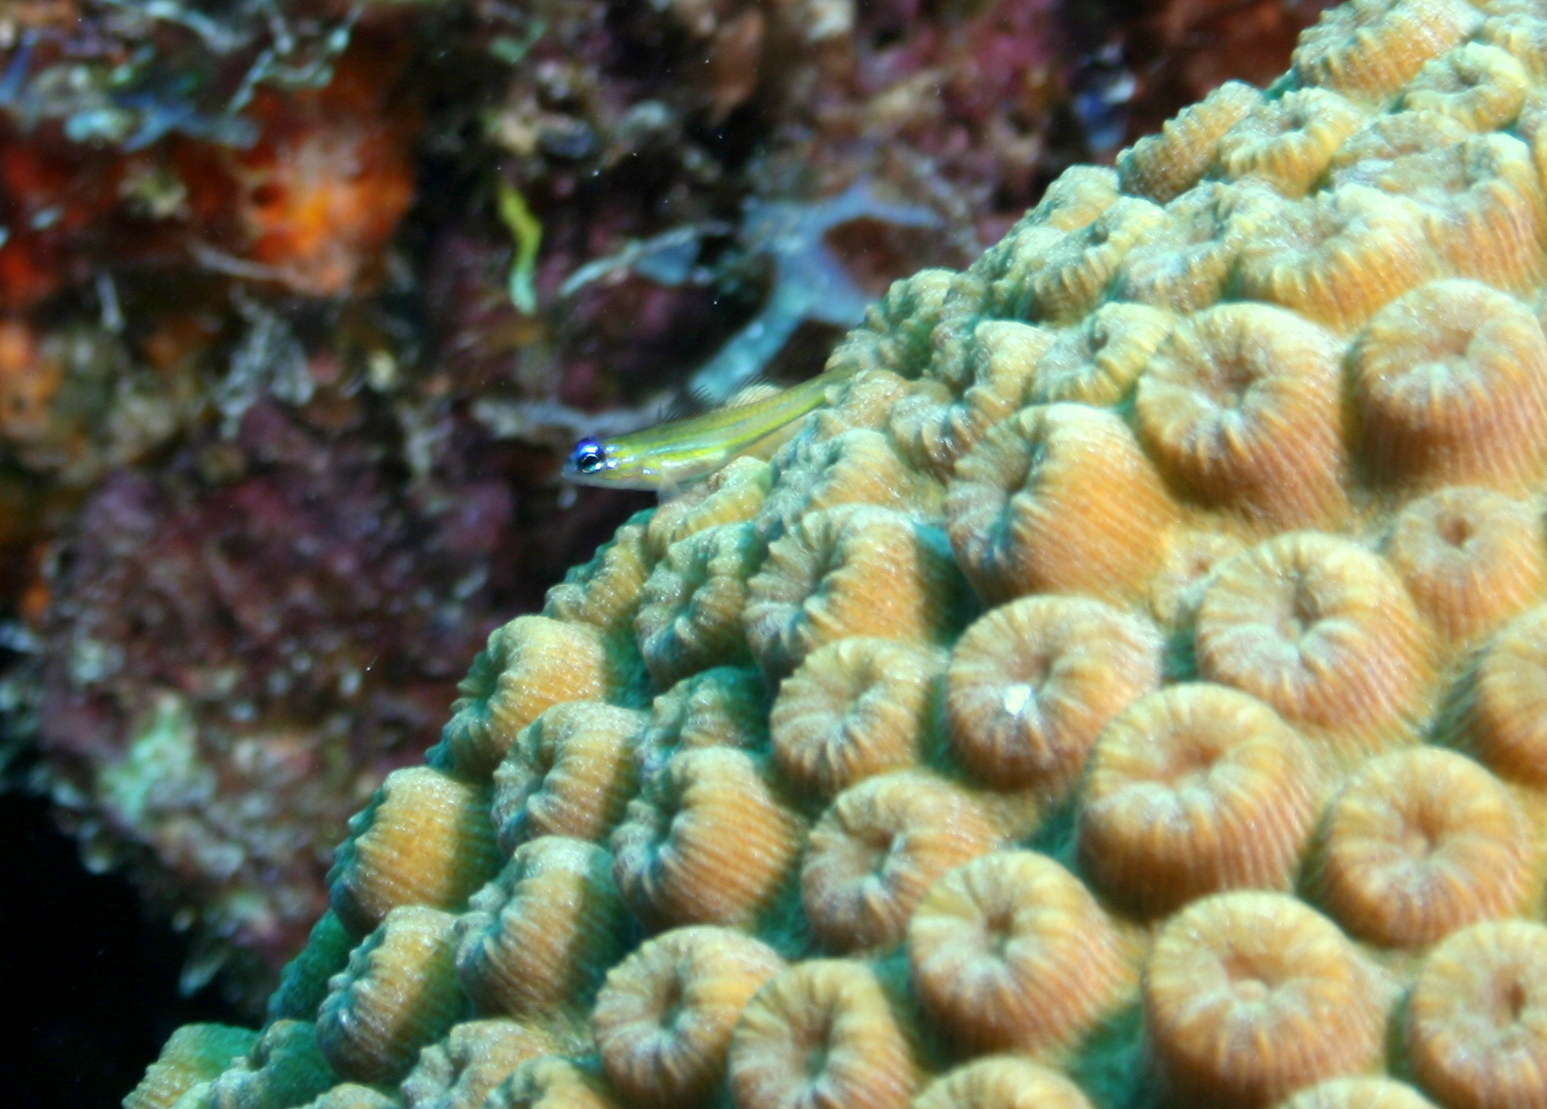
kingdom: Animalia
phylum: Chordata
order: Perciformes
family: Gobiidae
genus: Coryphopterus
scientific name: Coryphopterus lipernes
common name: Peppermint goby
